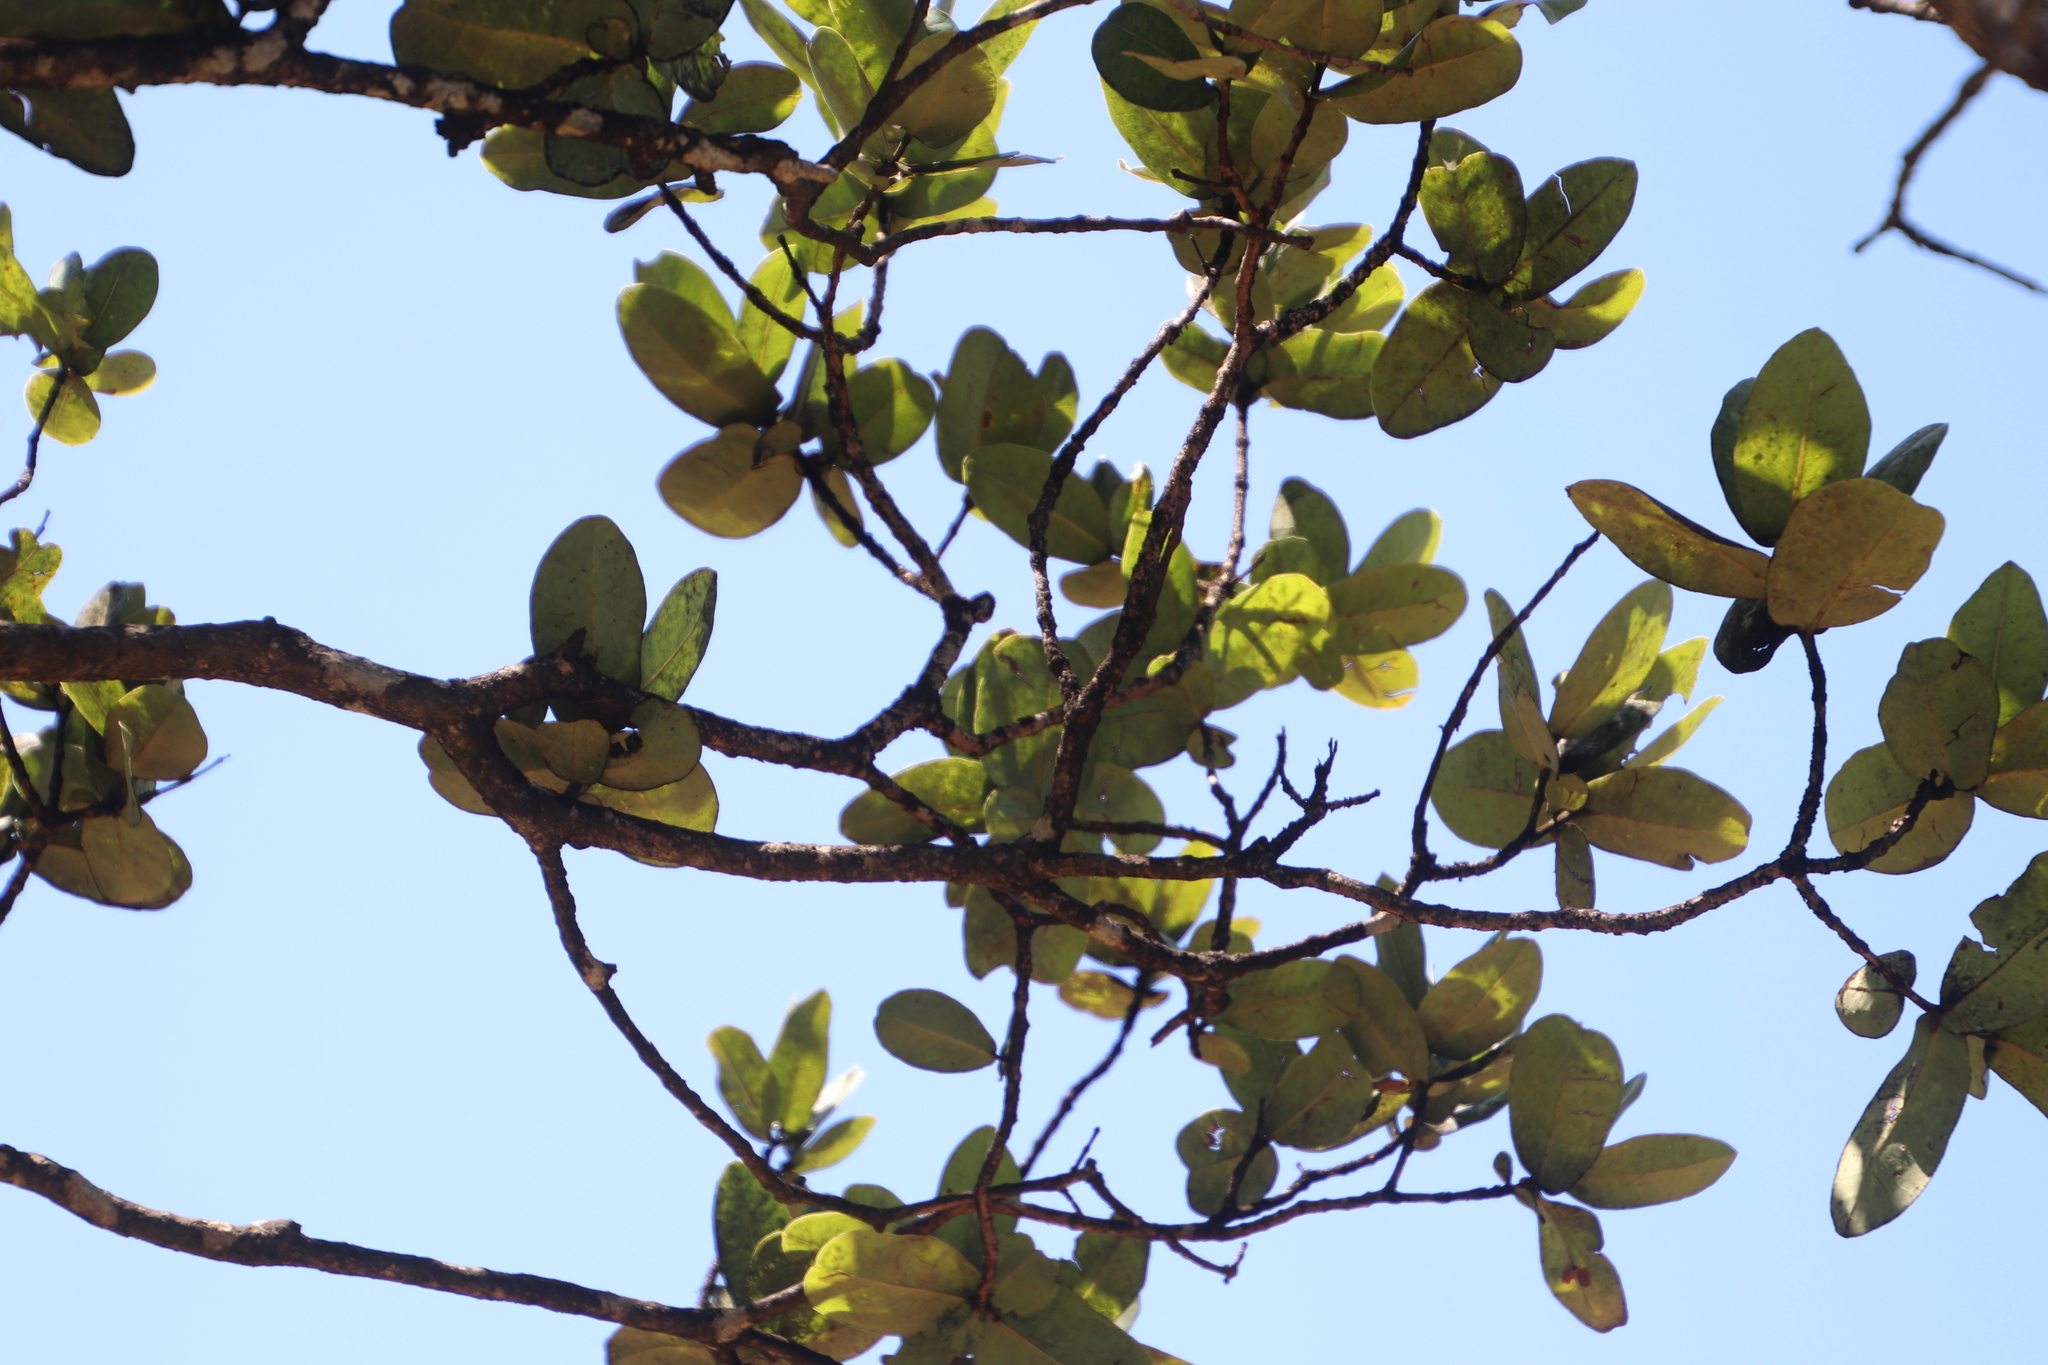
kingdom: Plantae
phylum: Tracheophyta
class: Magnoliopsida
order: Myrtales
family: Myrtaceae
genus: Syzygium
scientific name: Syzygium cordatum
